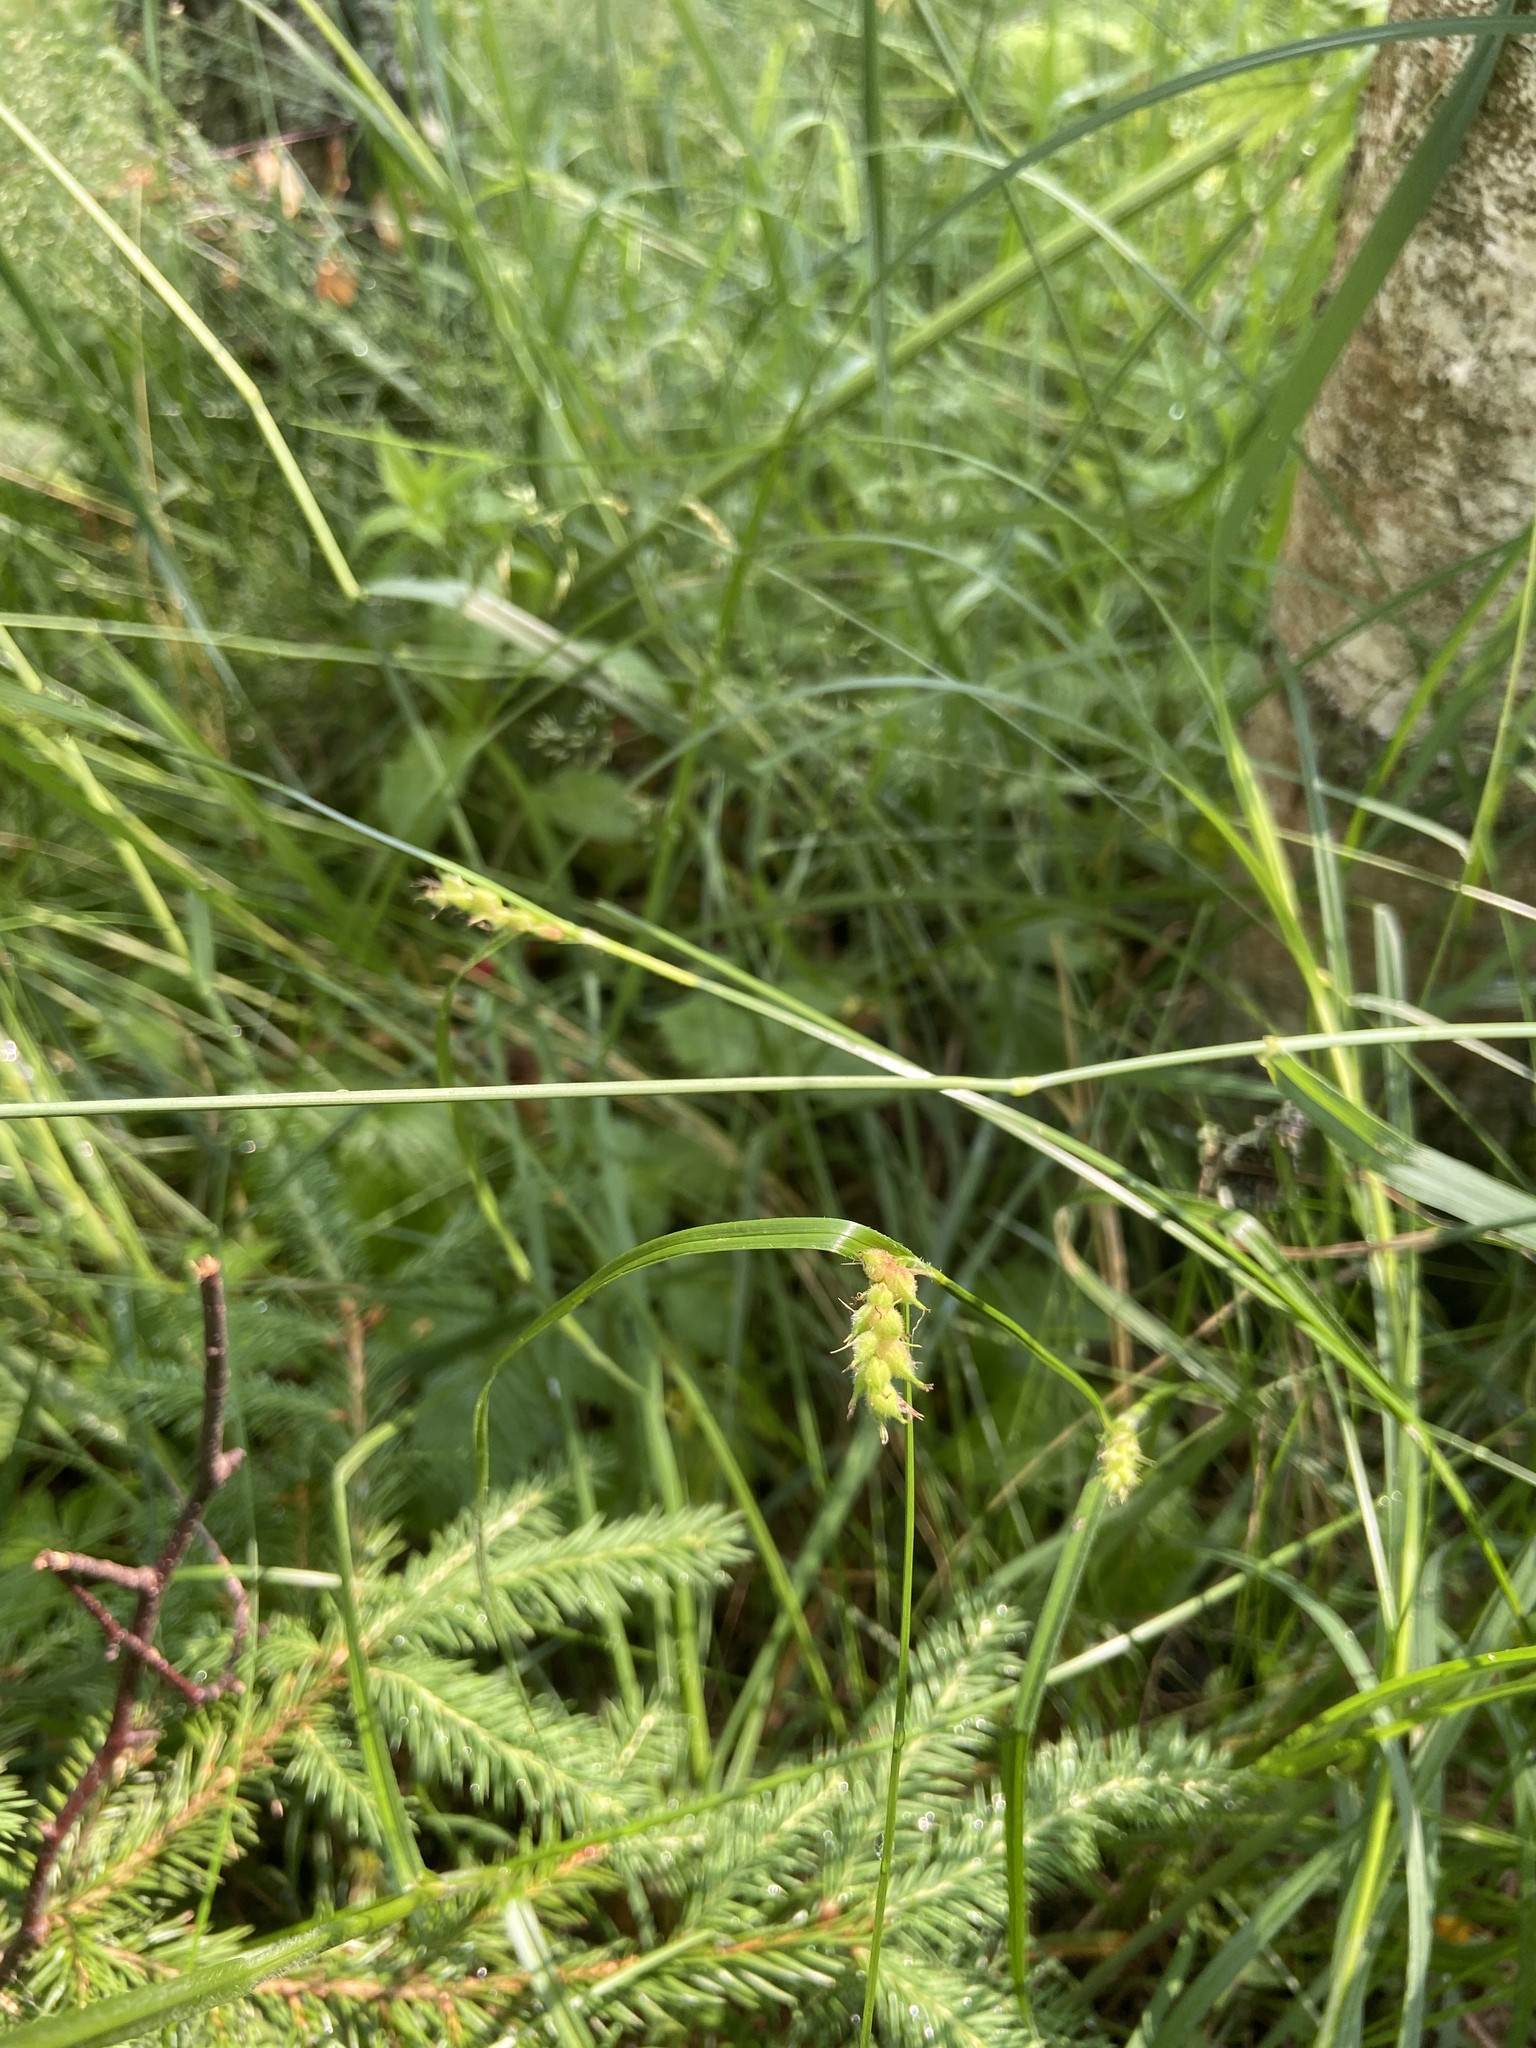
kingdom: Plantae
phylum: Tracheophyta
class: Liliopsida
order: Poales
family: Cyperaceae
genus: Carex
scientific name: Carex hirta
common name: Hairy sedge
